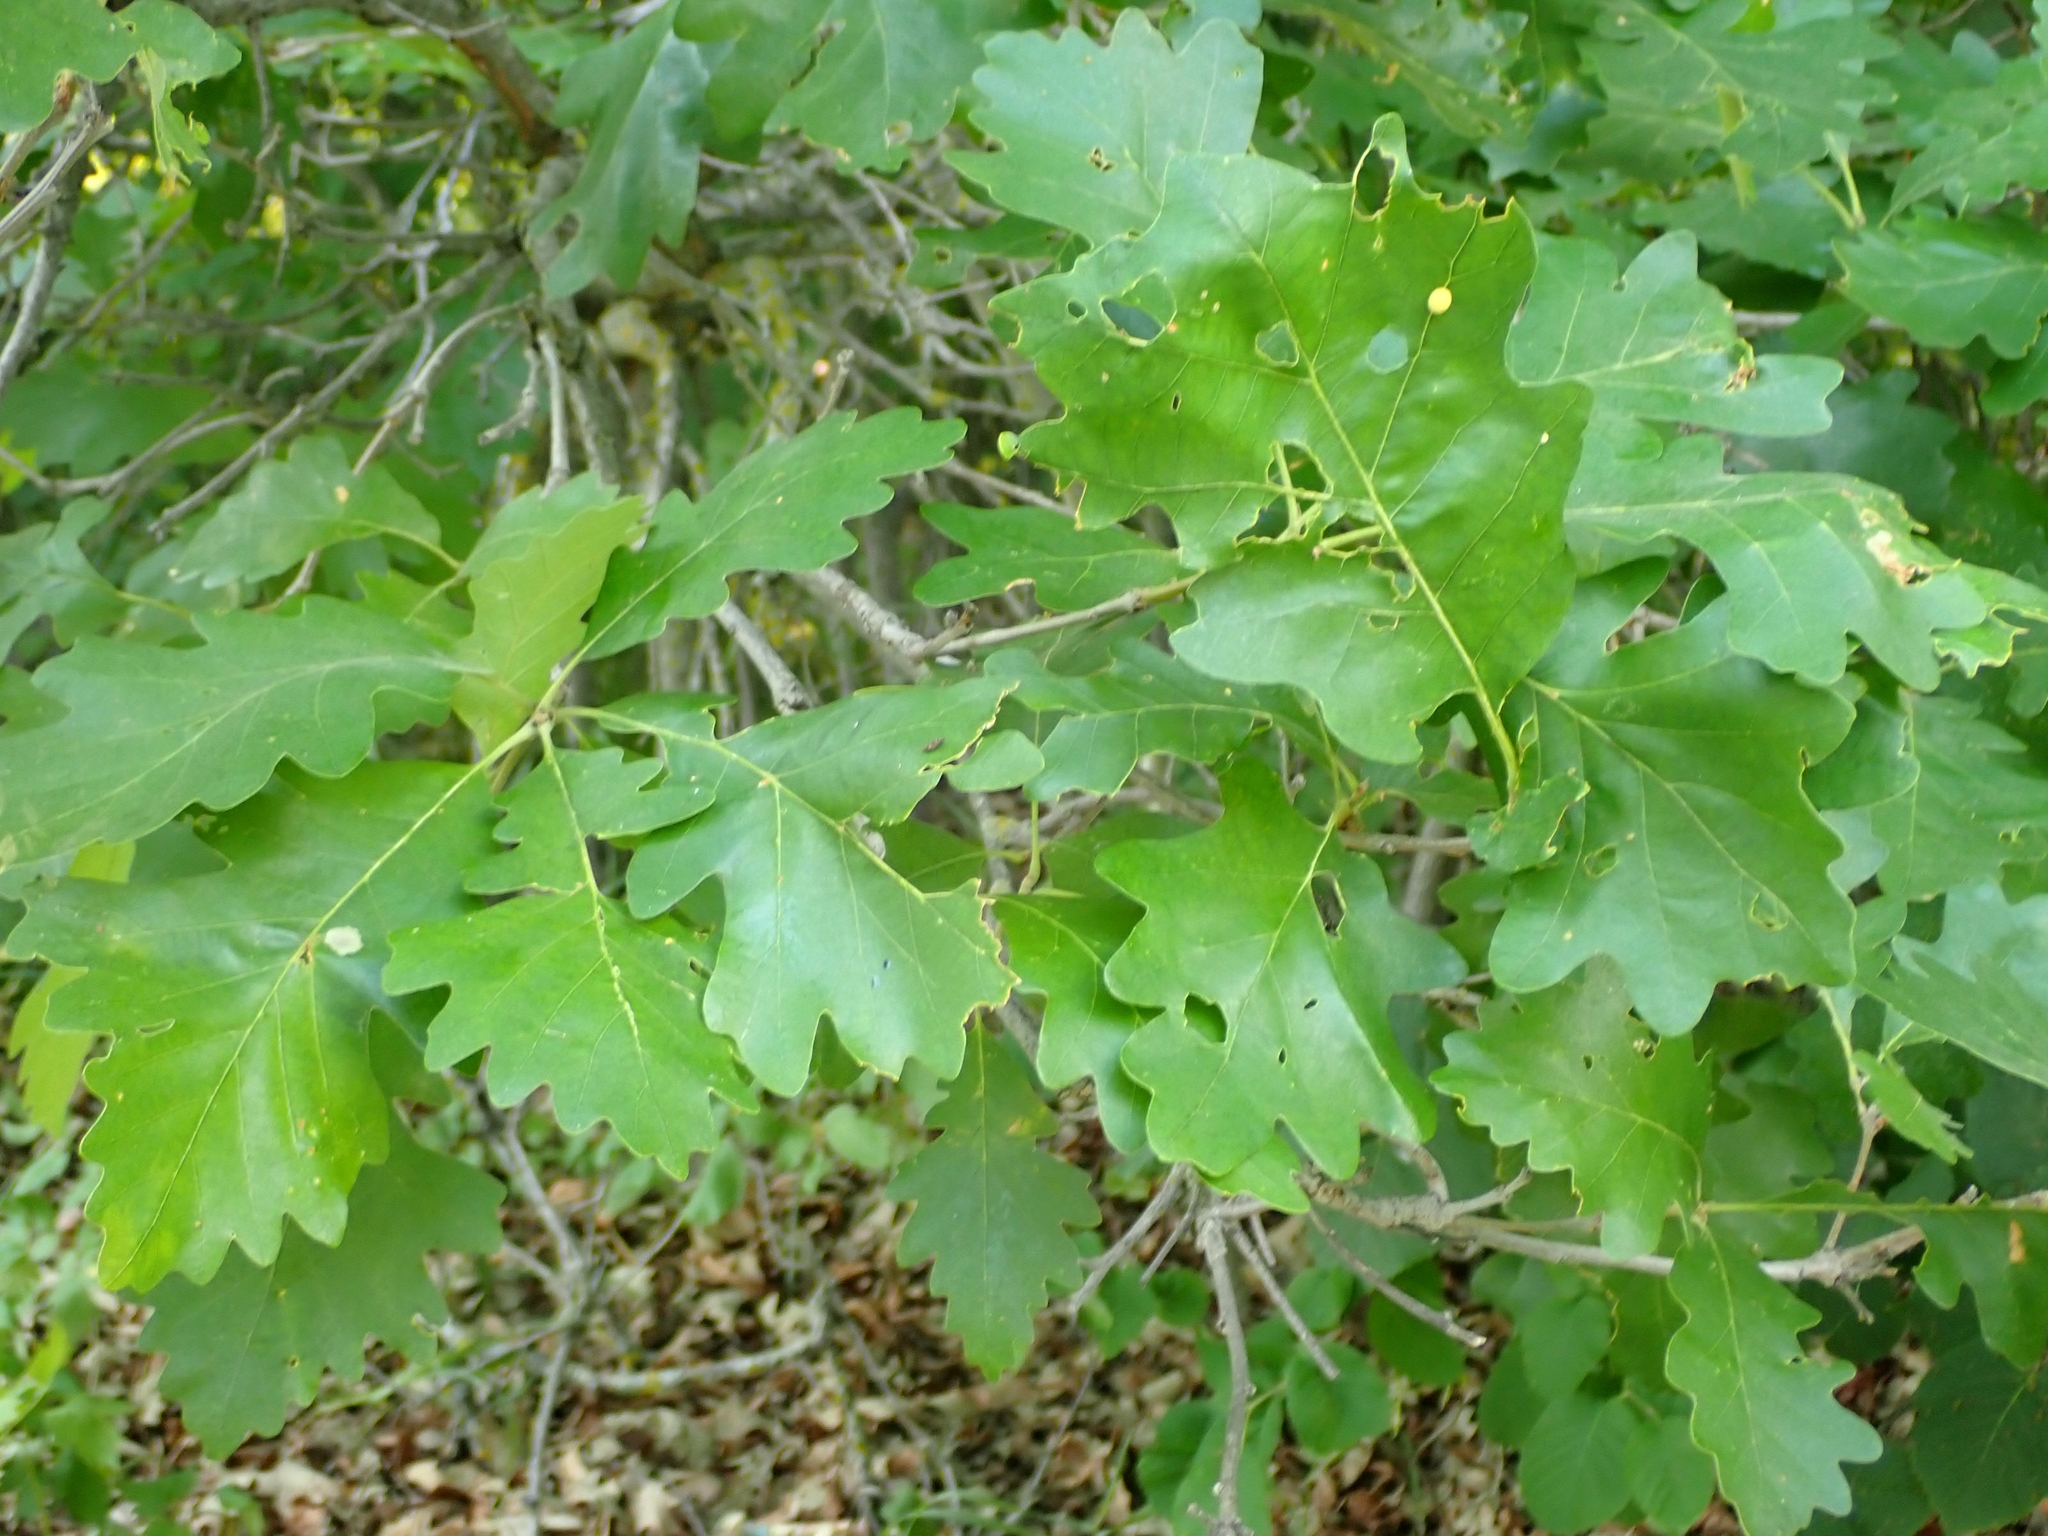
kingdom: Plantae
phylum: Tracheophyta
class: Magnoliopsida
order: Fagales
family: Fagaceae
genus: Quercus
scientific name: Quercus macrocarpa
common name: Bur oak
